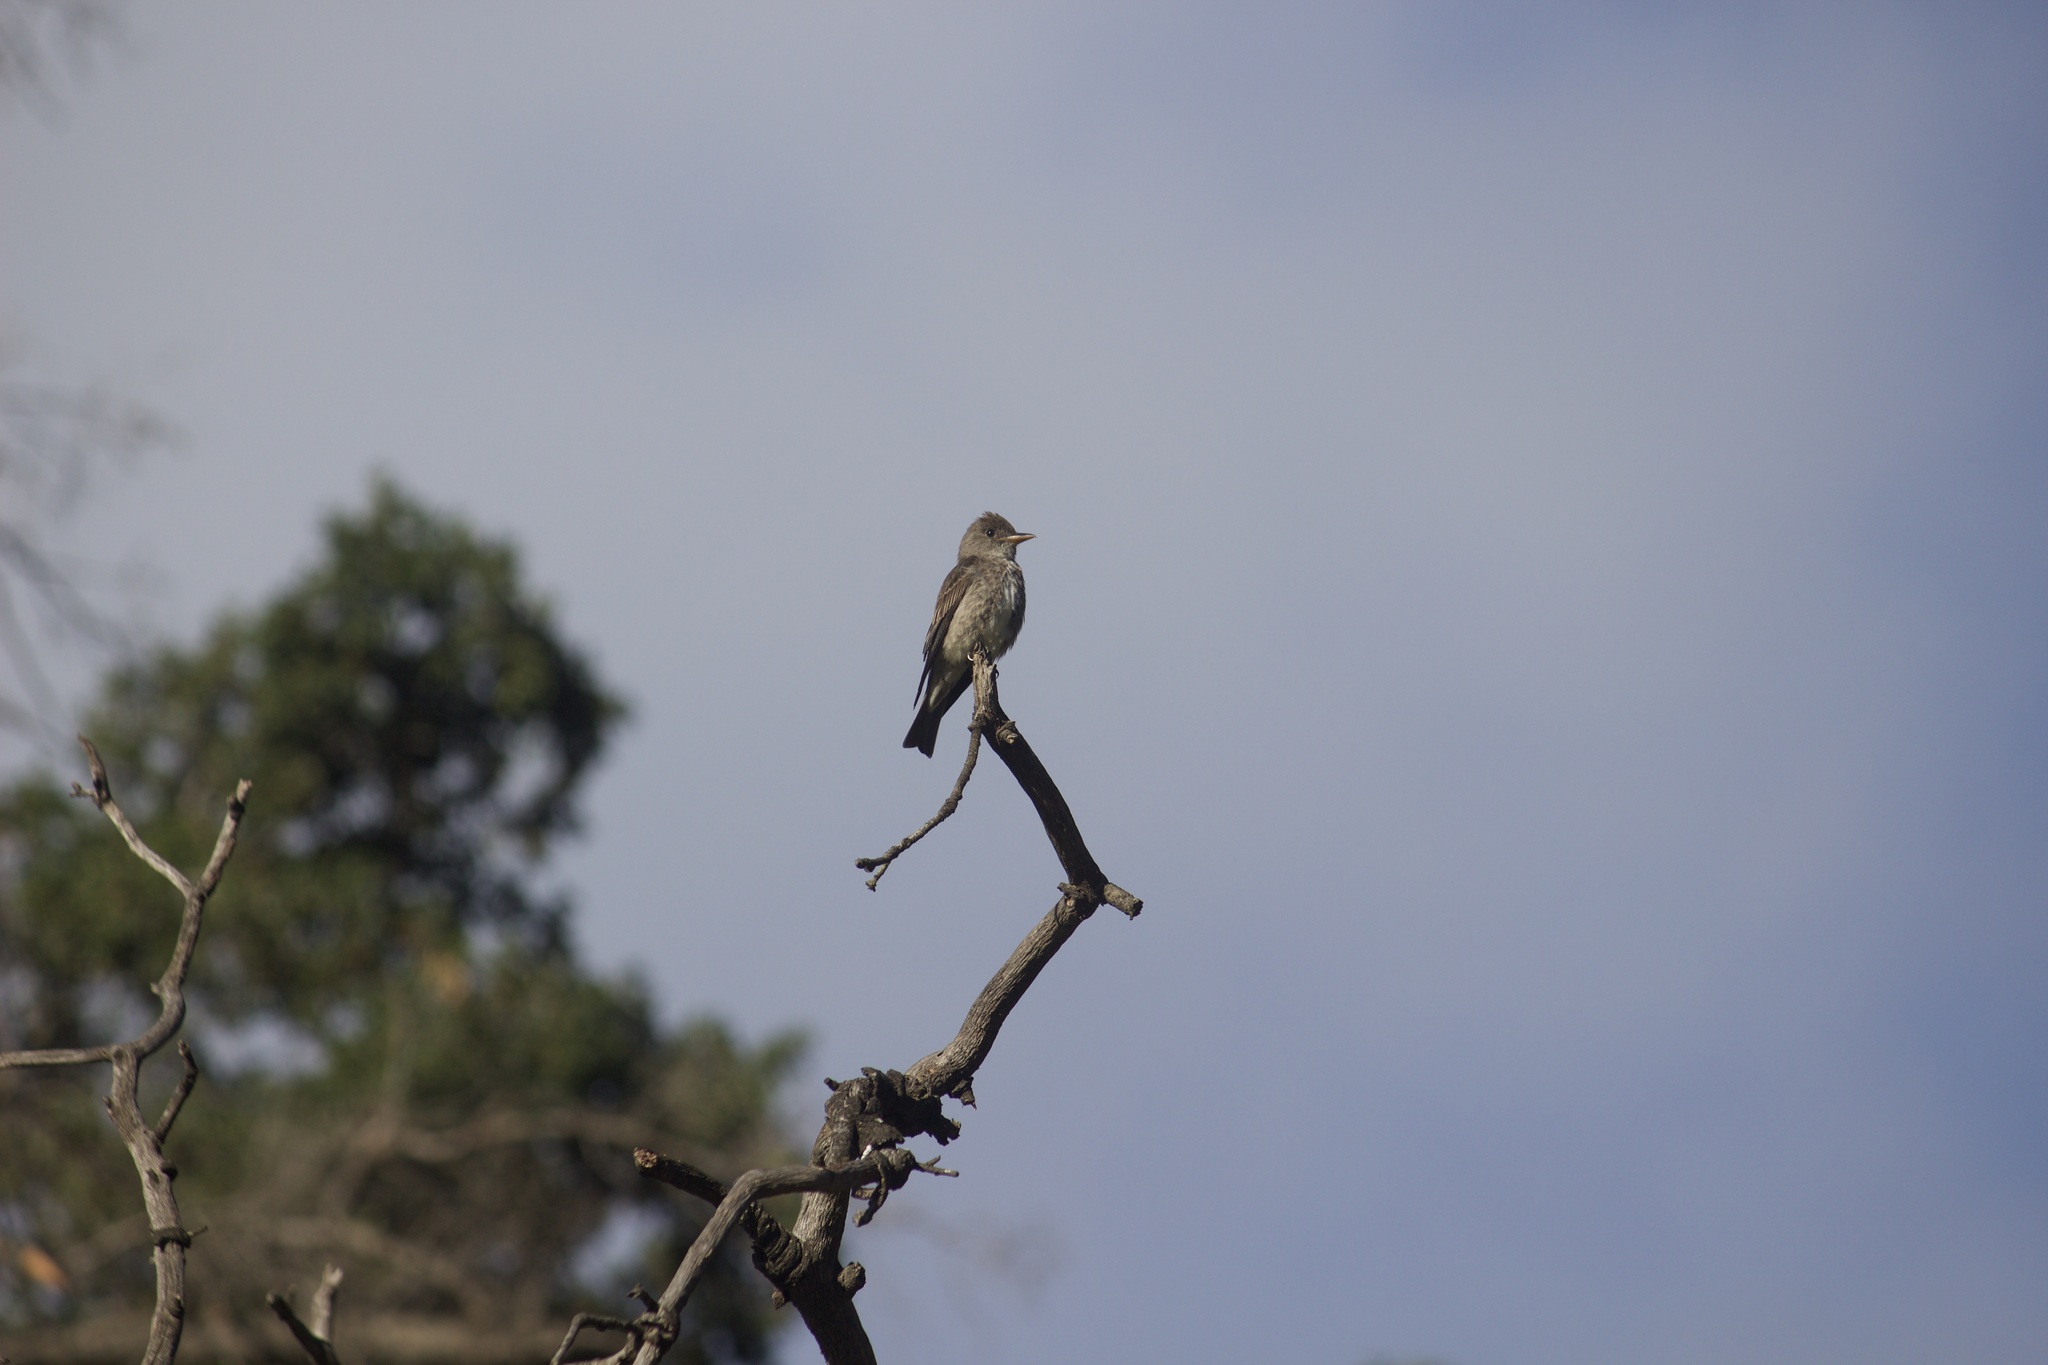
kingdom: Animalia
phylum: Chordata
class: Aves
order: Passeriformes
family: Tyrannidae
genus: Contopus
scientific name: Contopus cooperi
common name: Olive-sided flycatcher
